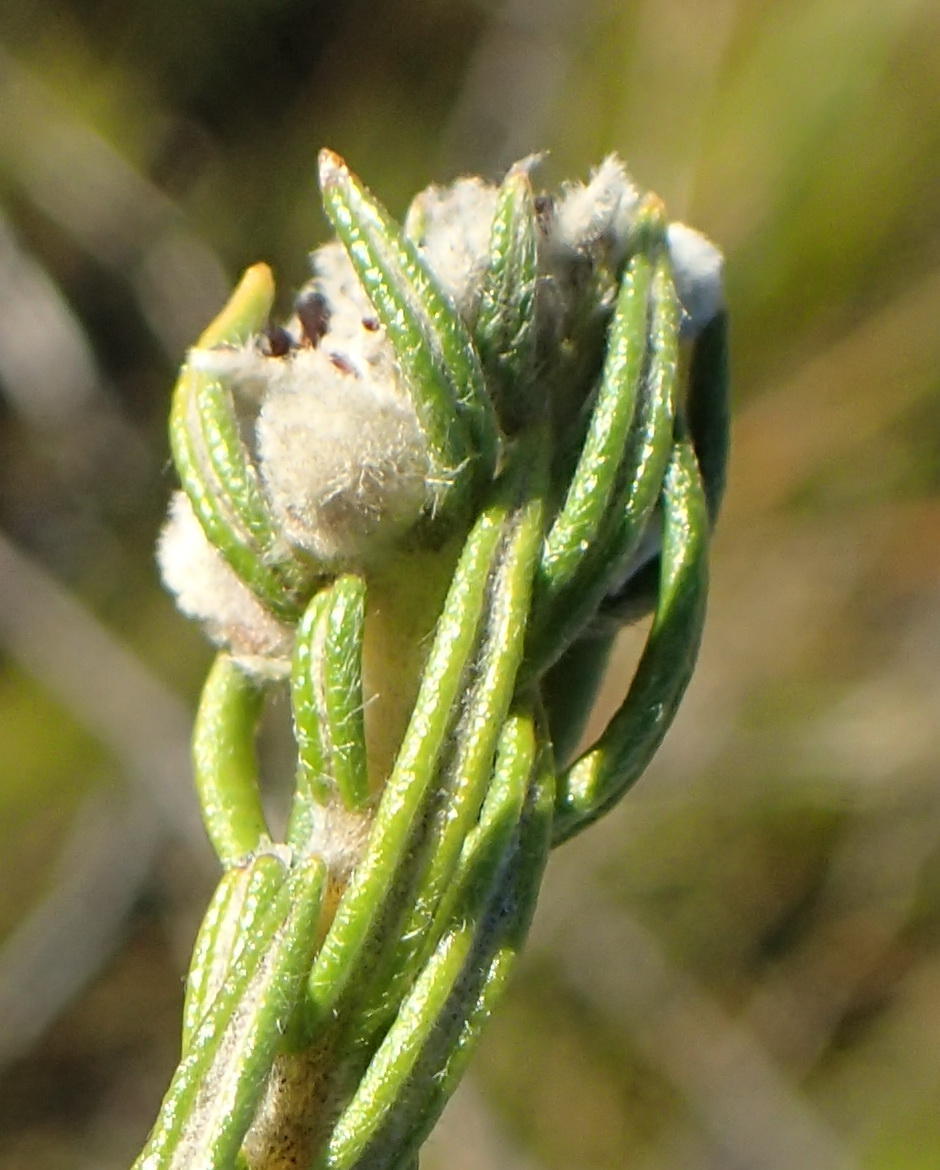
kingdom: Plantae
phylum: Tracheophyta
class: Magnoliopsida
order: Rosales
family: Rhamnaceae
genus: Phylica
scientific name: Phylica imberbis
